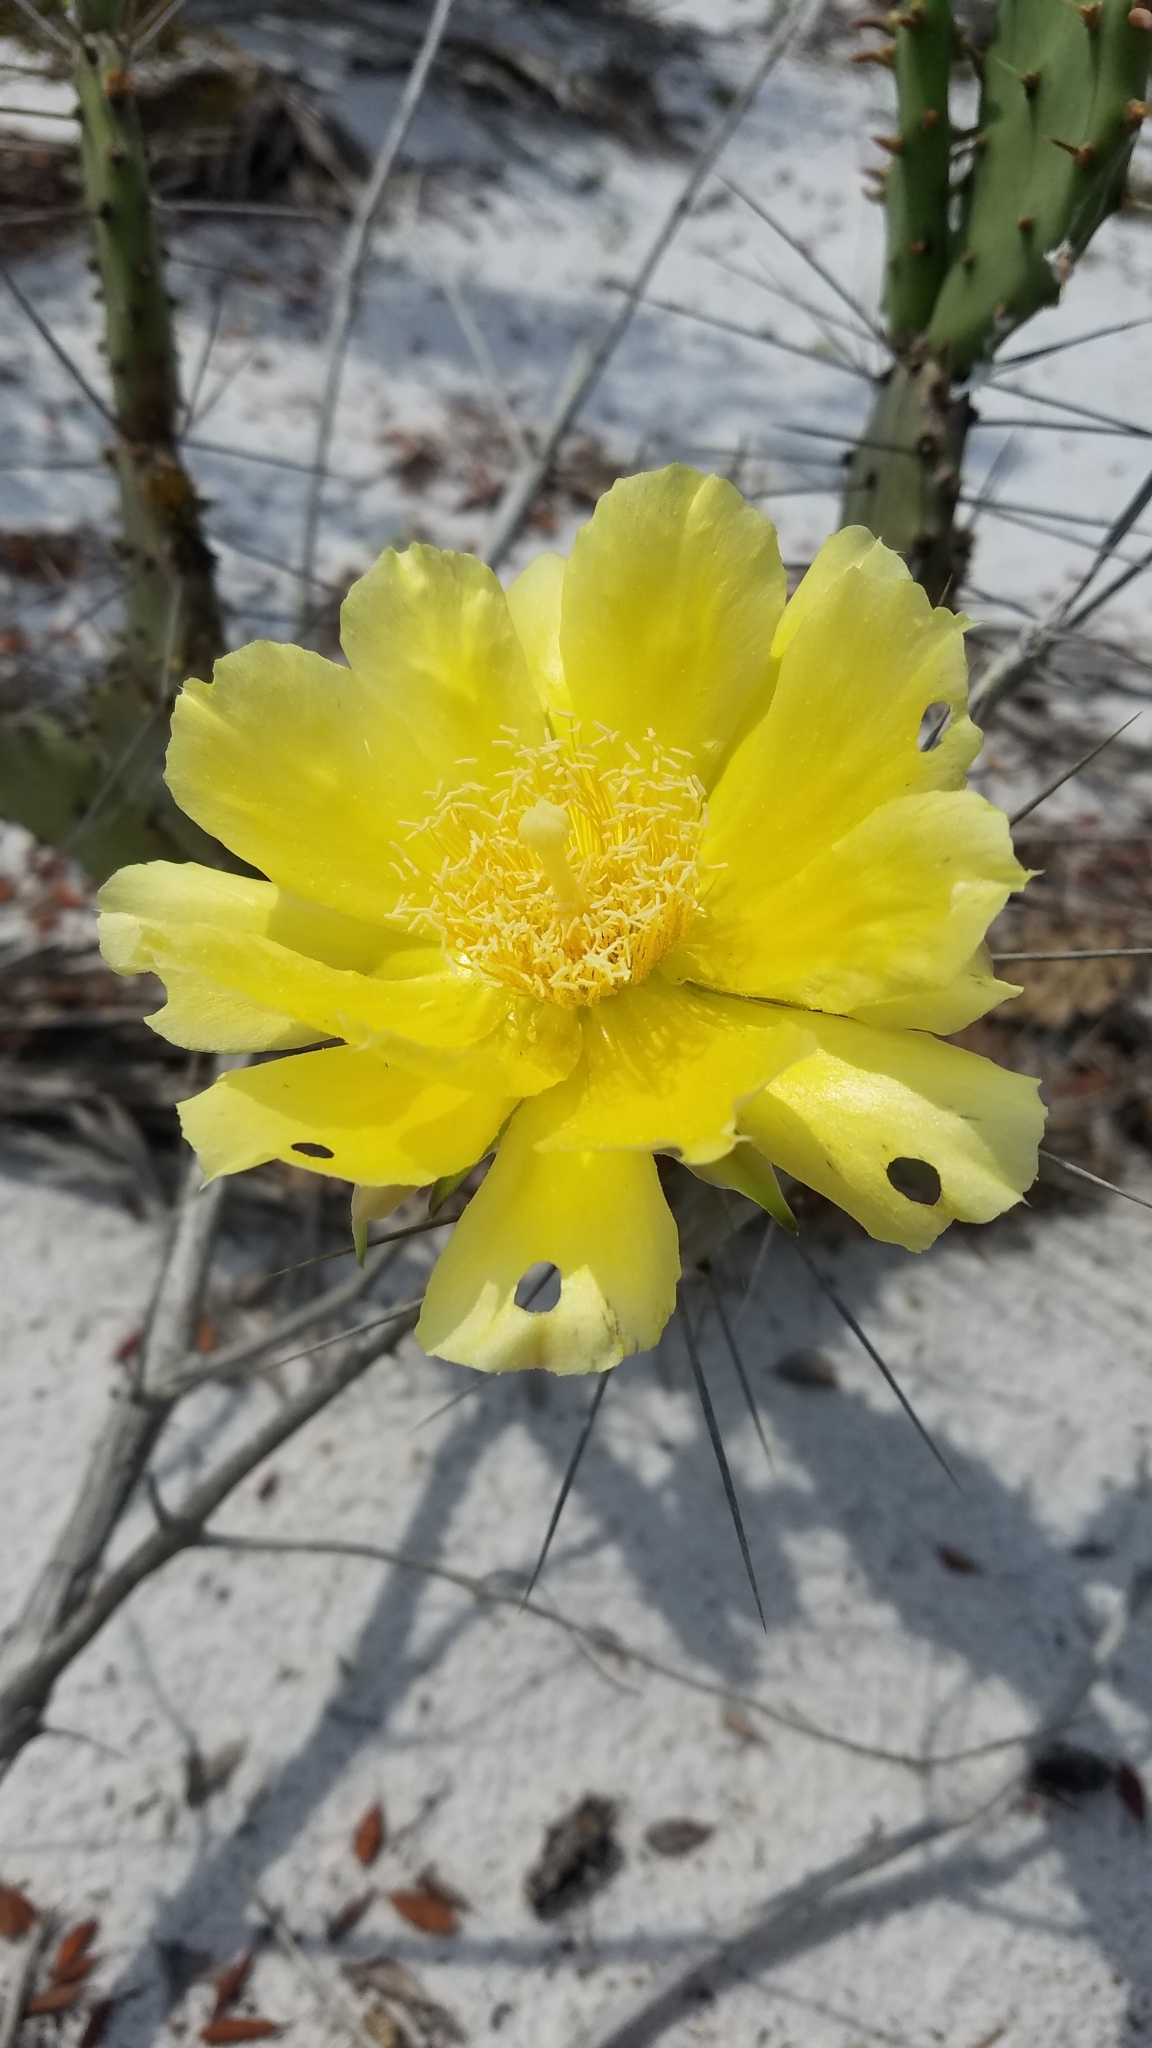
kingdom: Plantae
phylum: Tracheophyta
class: Magnoliopsida
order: Caryophyllales
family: Cactaceae
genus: Opuntia
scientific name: Opuntia austrina
